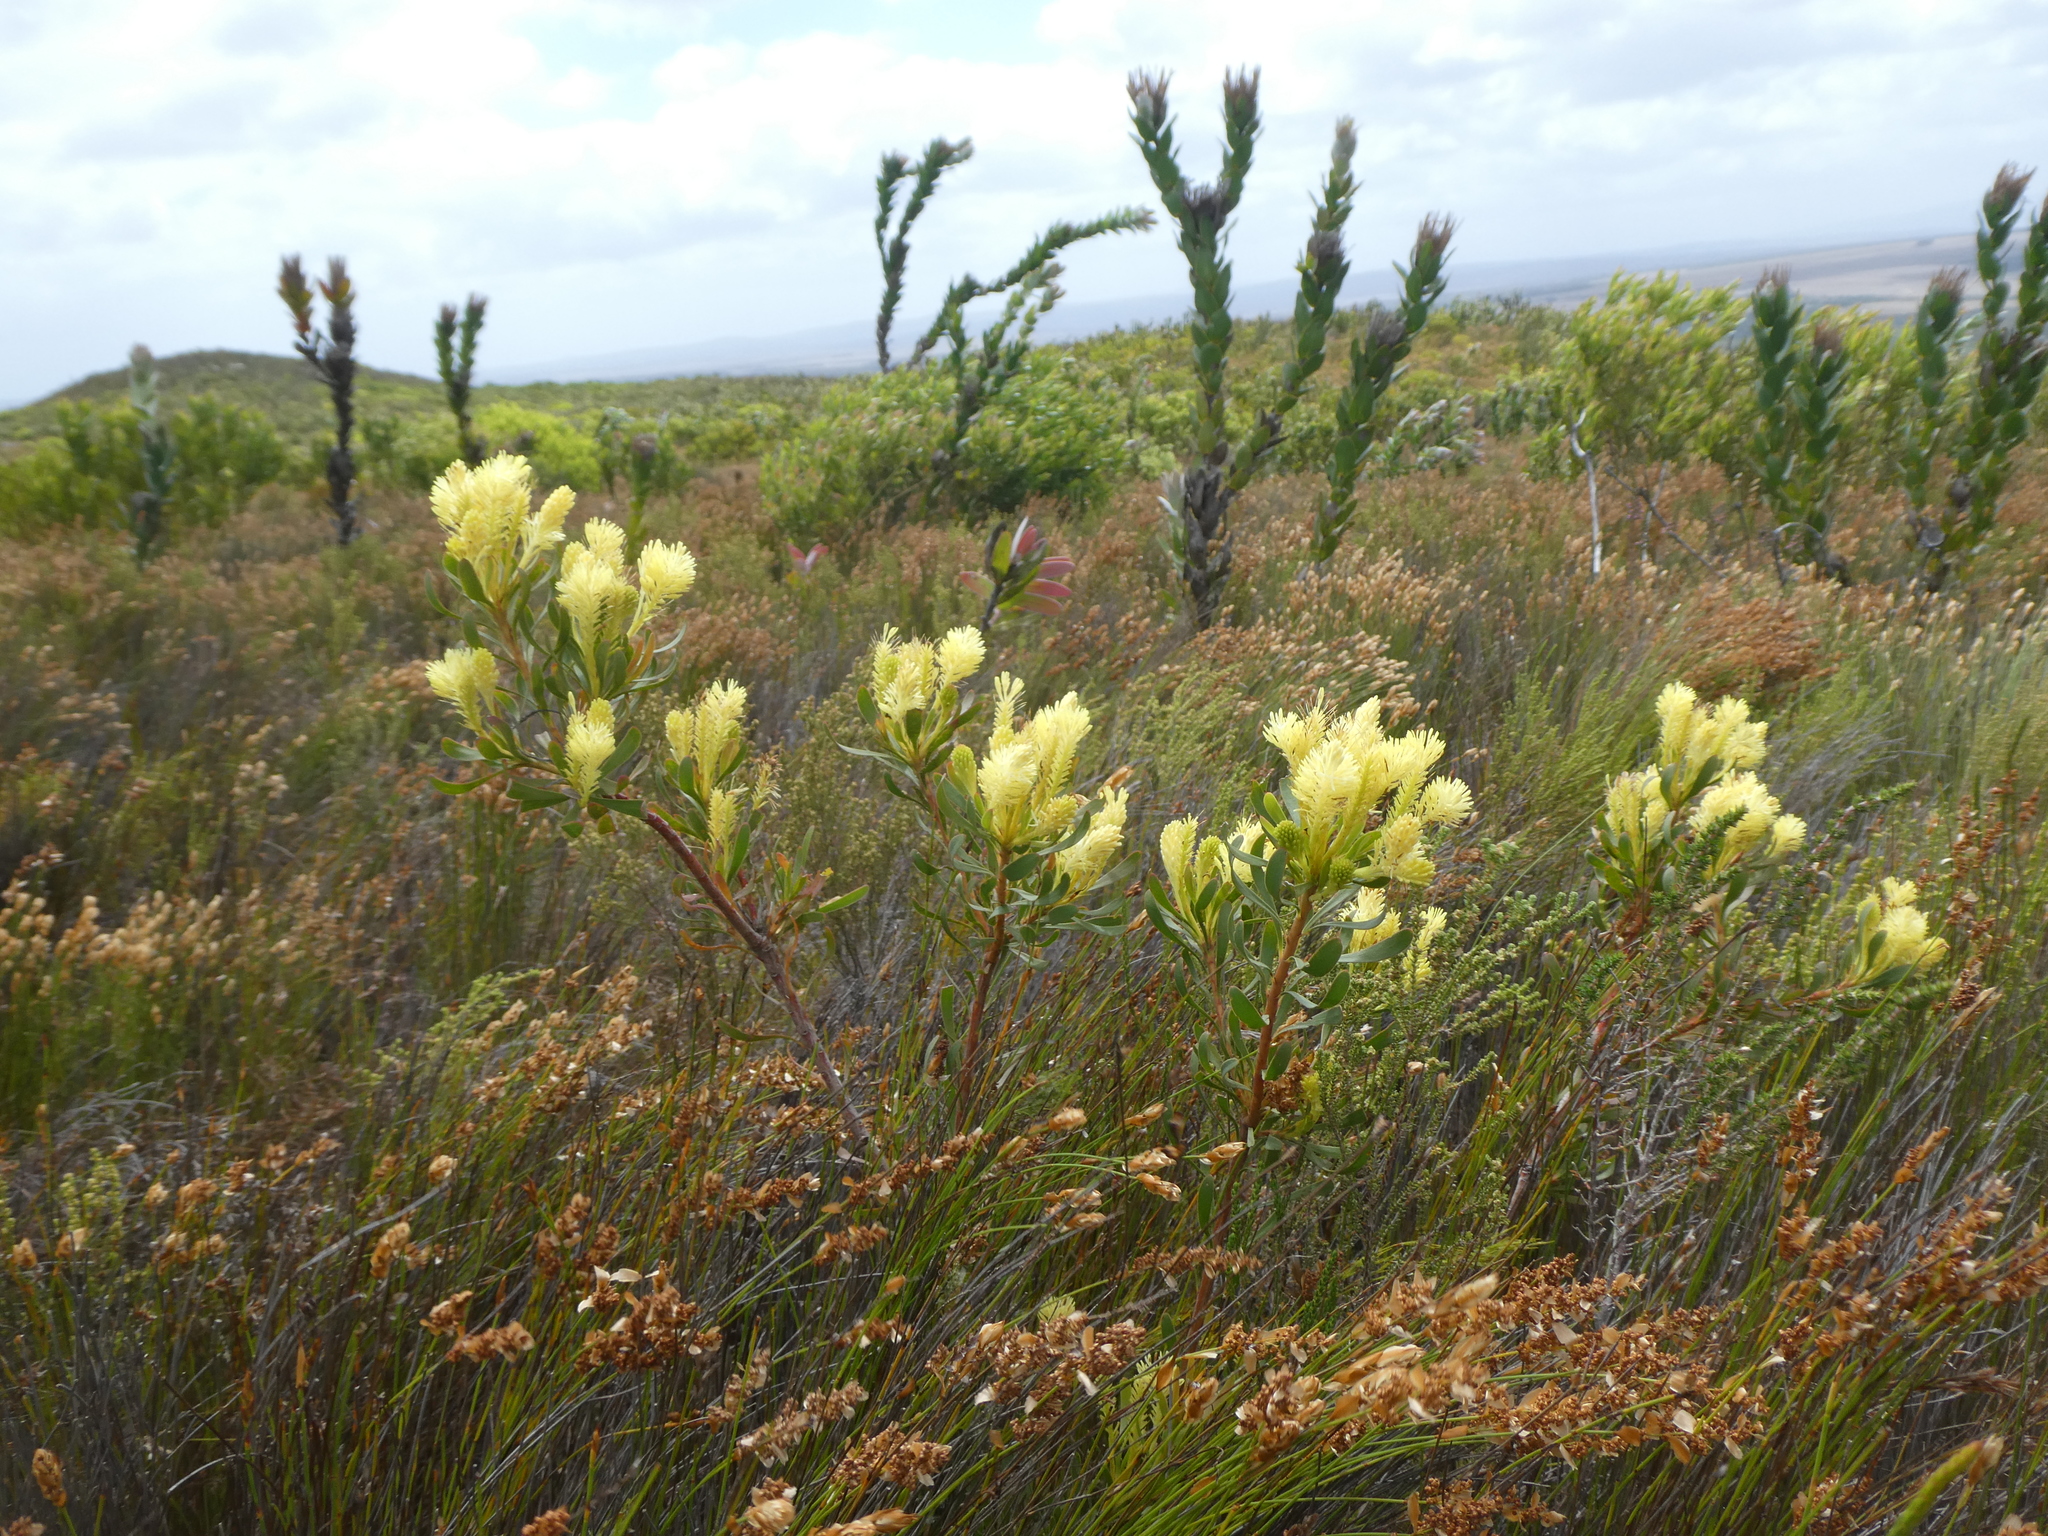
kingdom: Plantae
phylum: Tracheophyta
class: Magnoliopsida
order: Proteales
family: Proteaceae
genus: Aulax
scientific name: Aulax umbellata
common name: Broad-leaf featherbush
